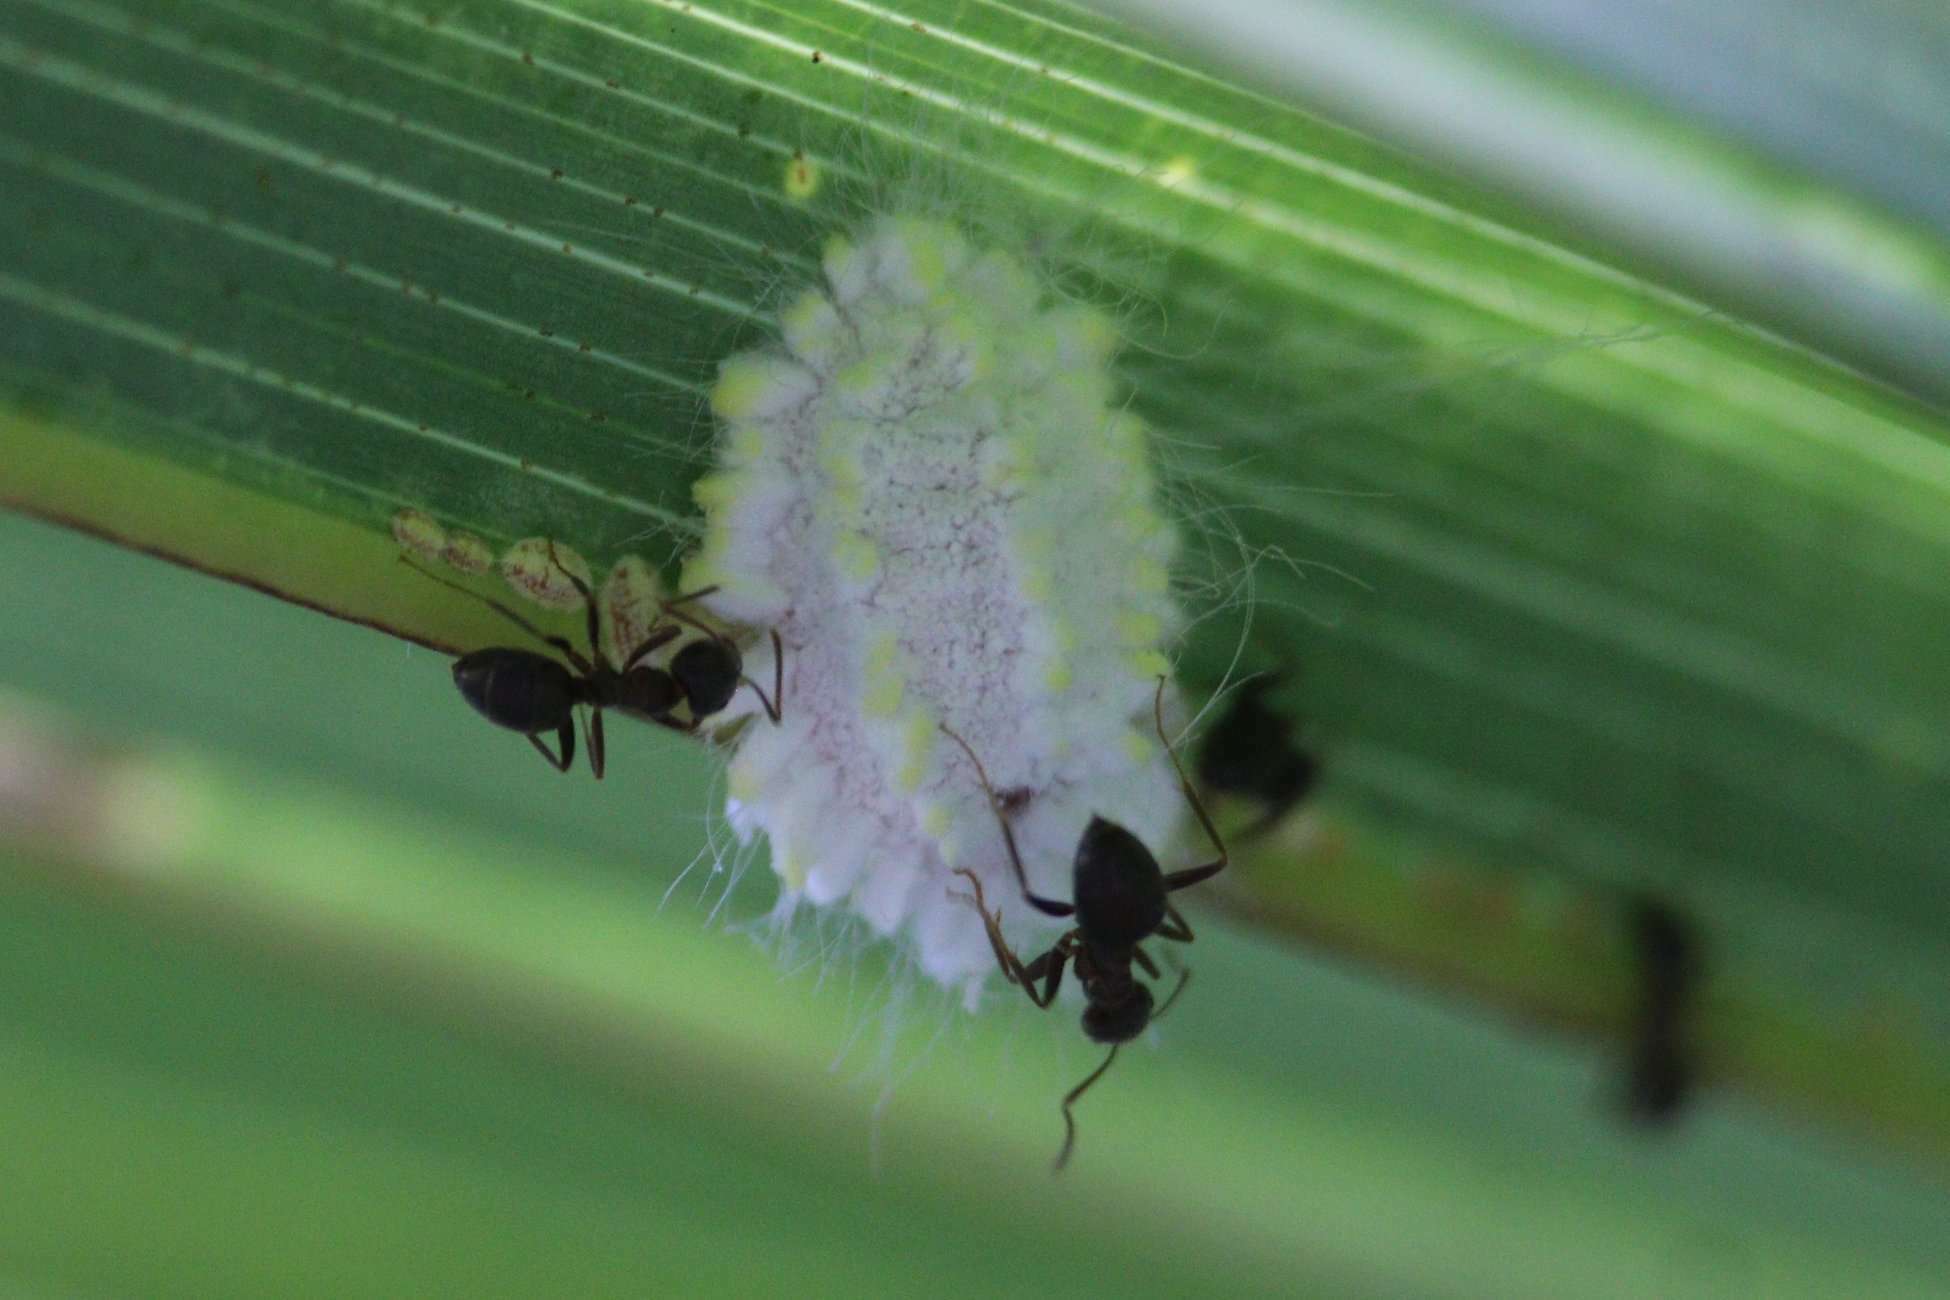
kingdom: Animalia
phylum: Arthropoda
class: Insecta
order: Hemiptera
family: Margarodidae
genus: Icerya
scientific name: Icerya seychellarum
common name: Iceplant scale
